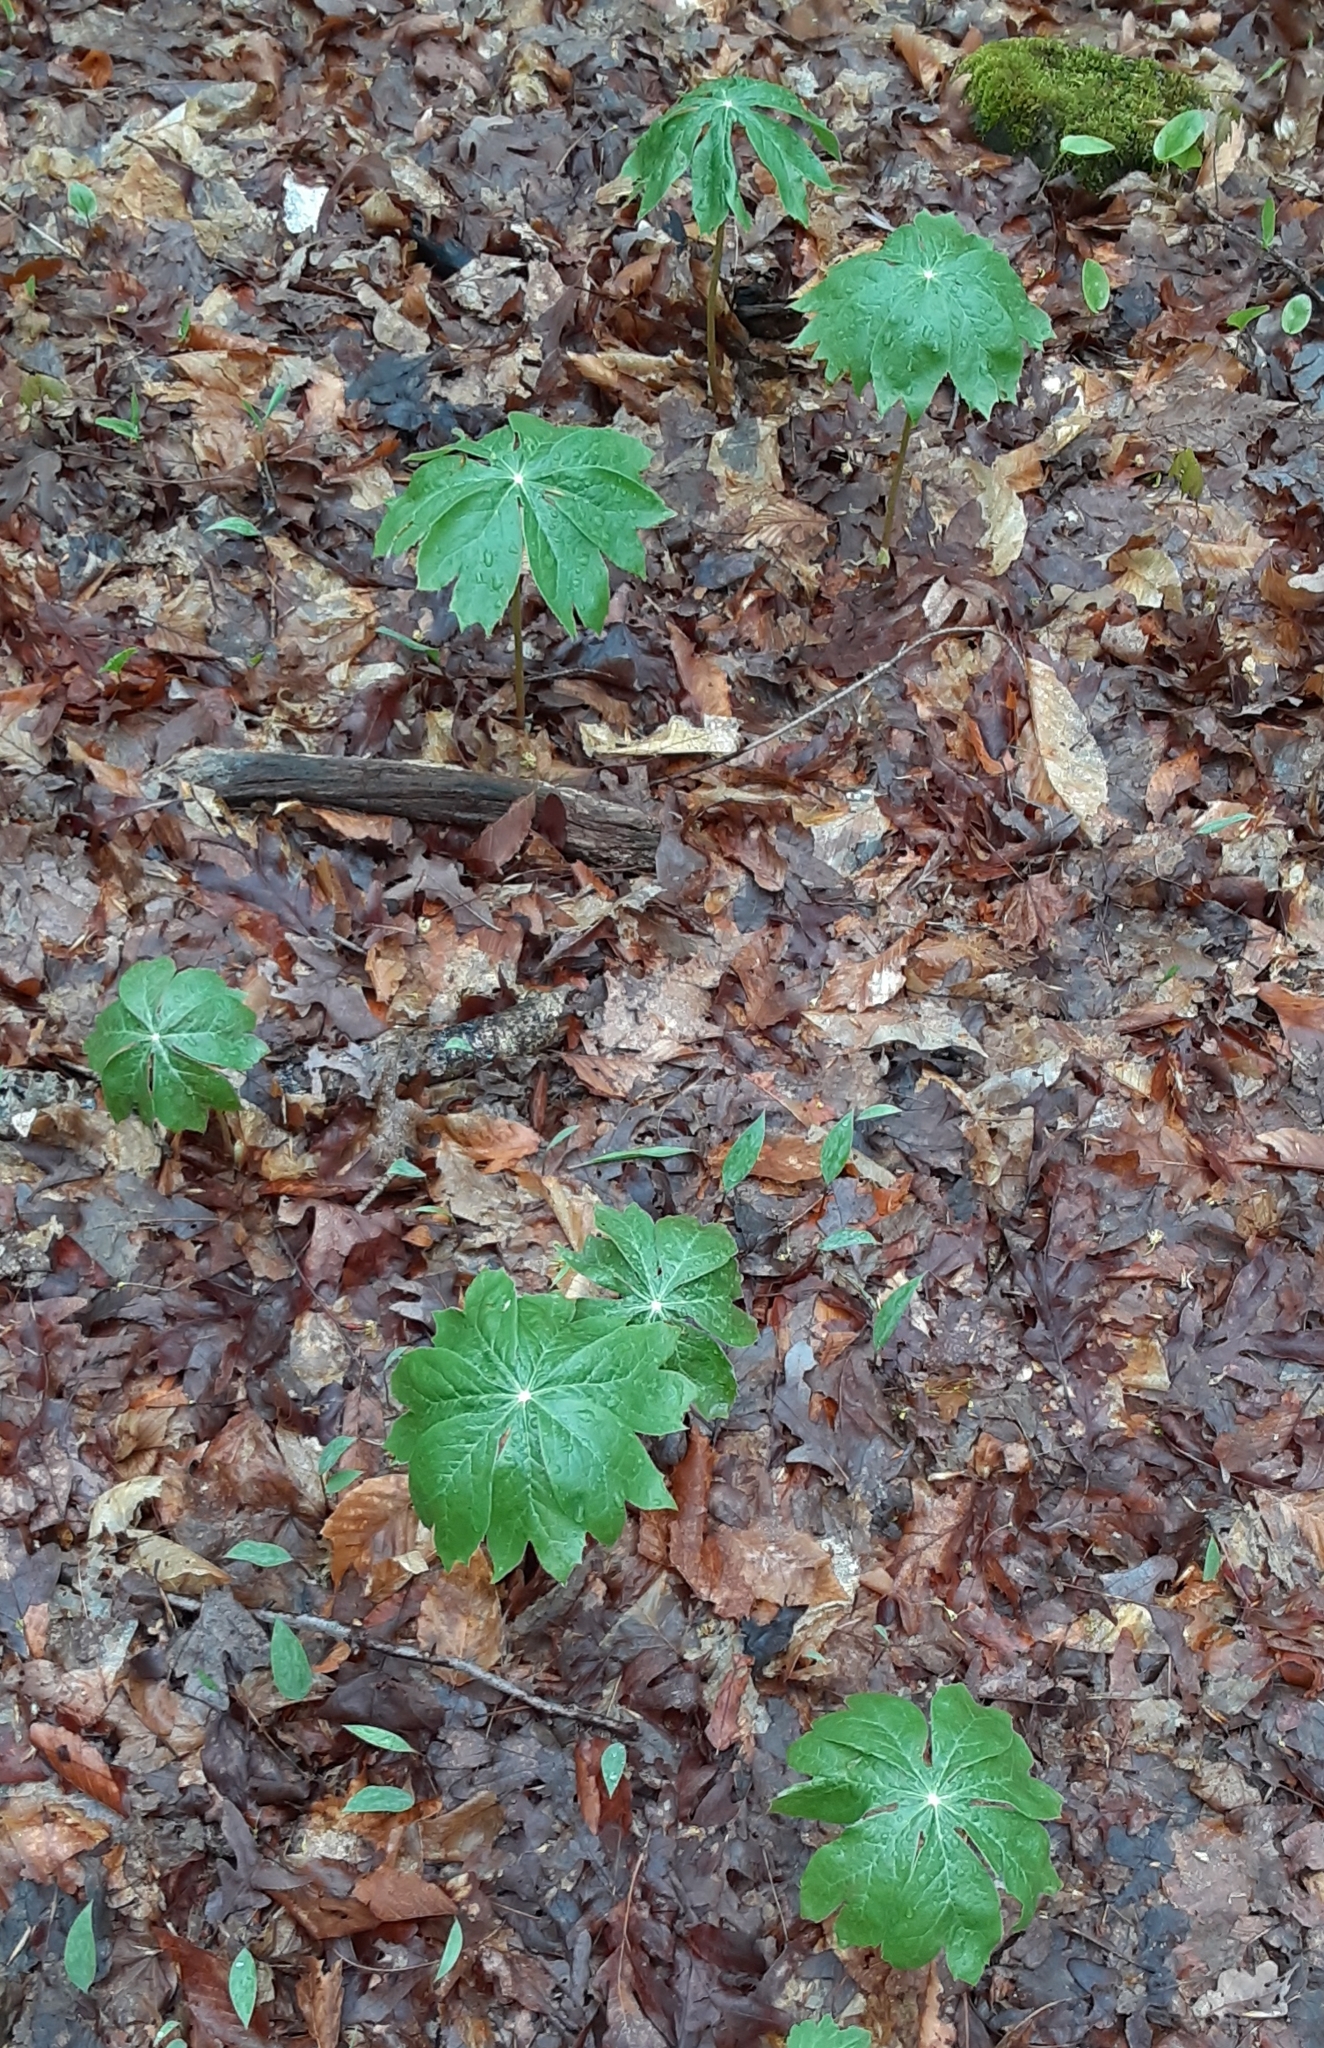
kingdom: Plantae
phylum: Tracheophyta
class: Magnoliopsida
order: Ranunculales
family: Berberidaceae
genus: Podophyllum
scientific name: Podophyllum peltatum
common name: Wild mandrake
